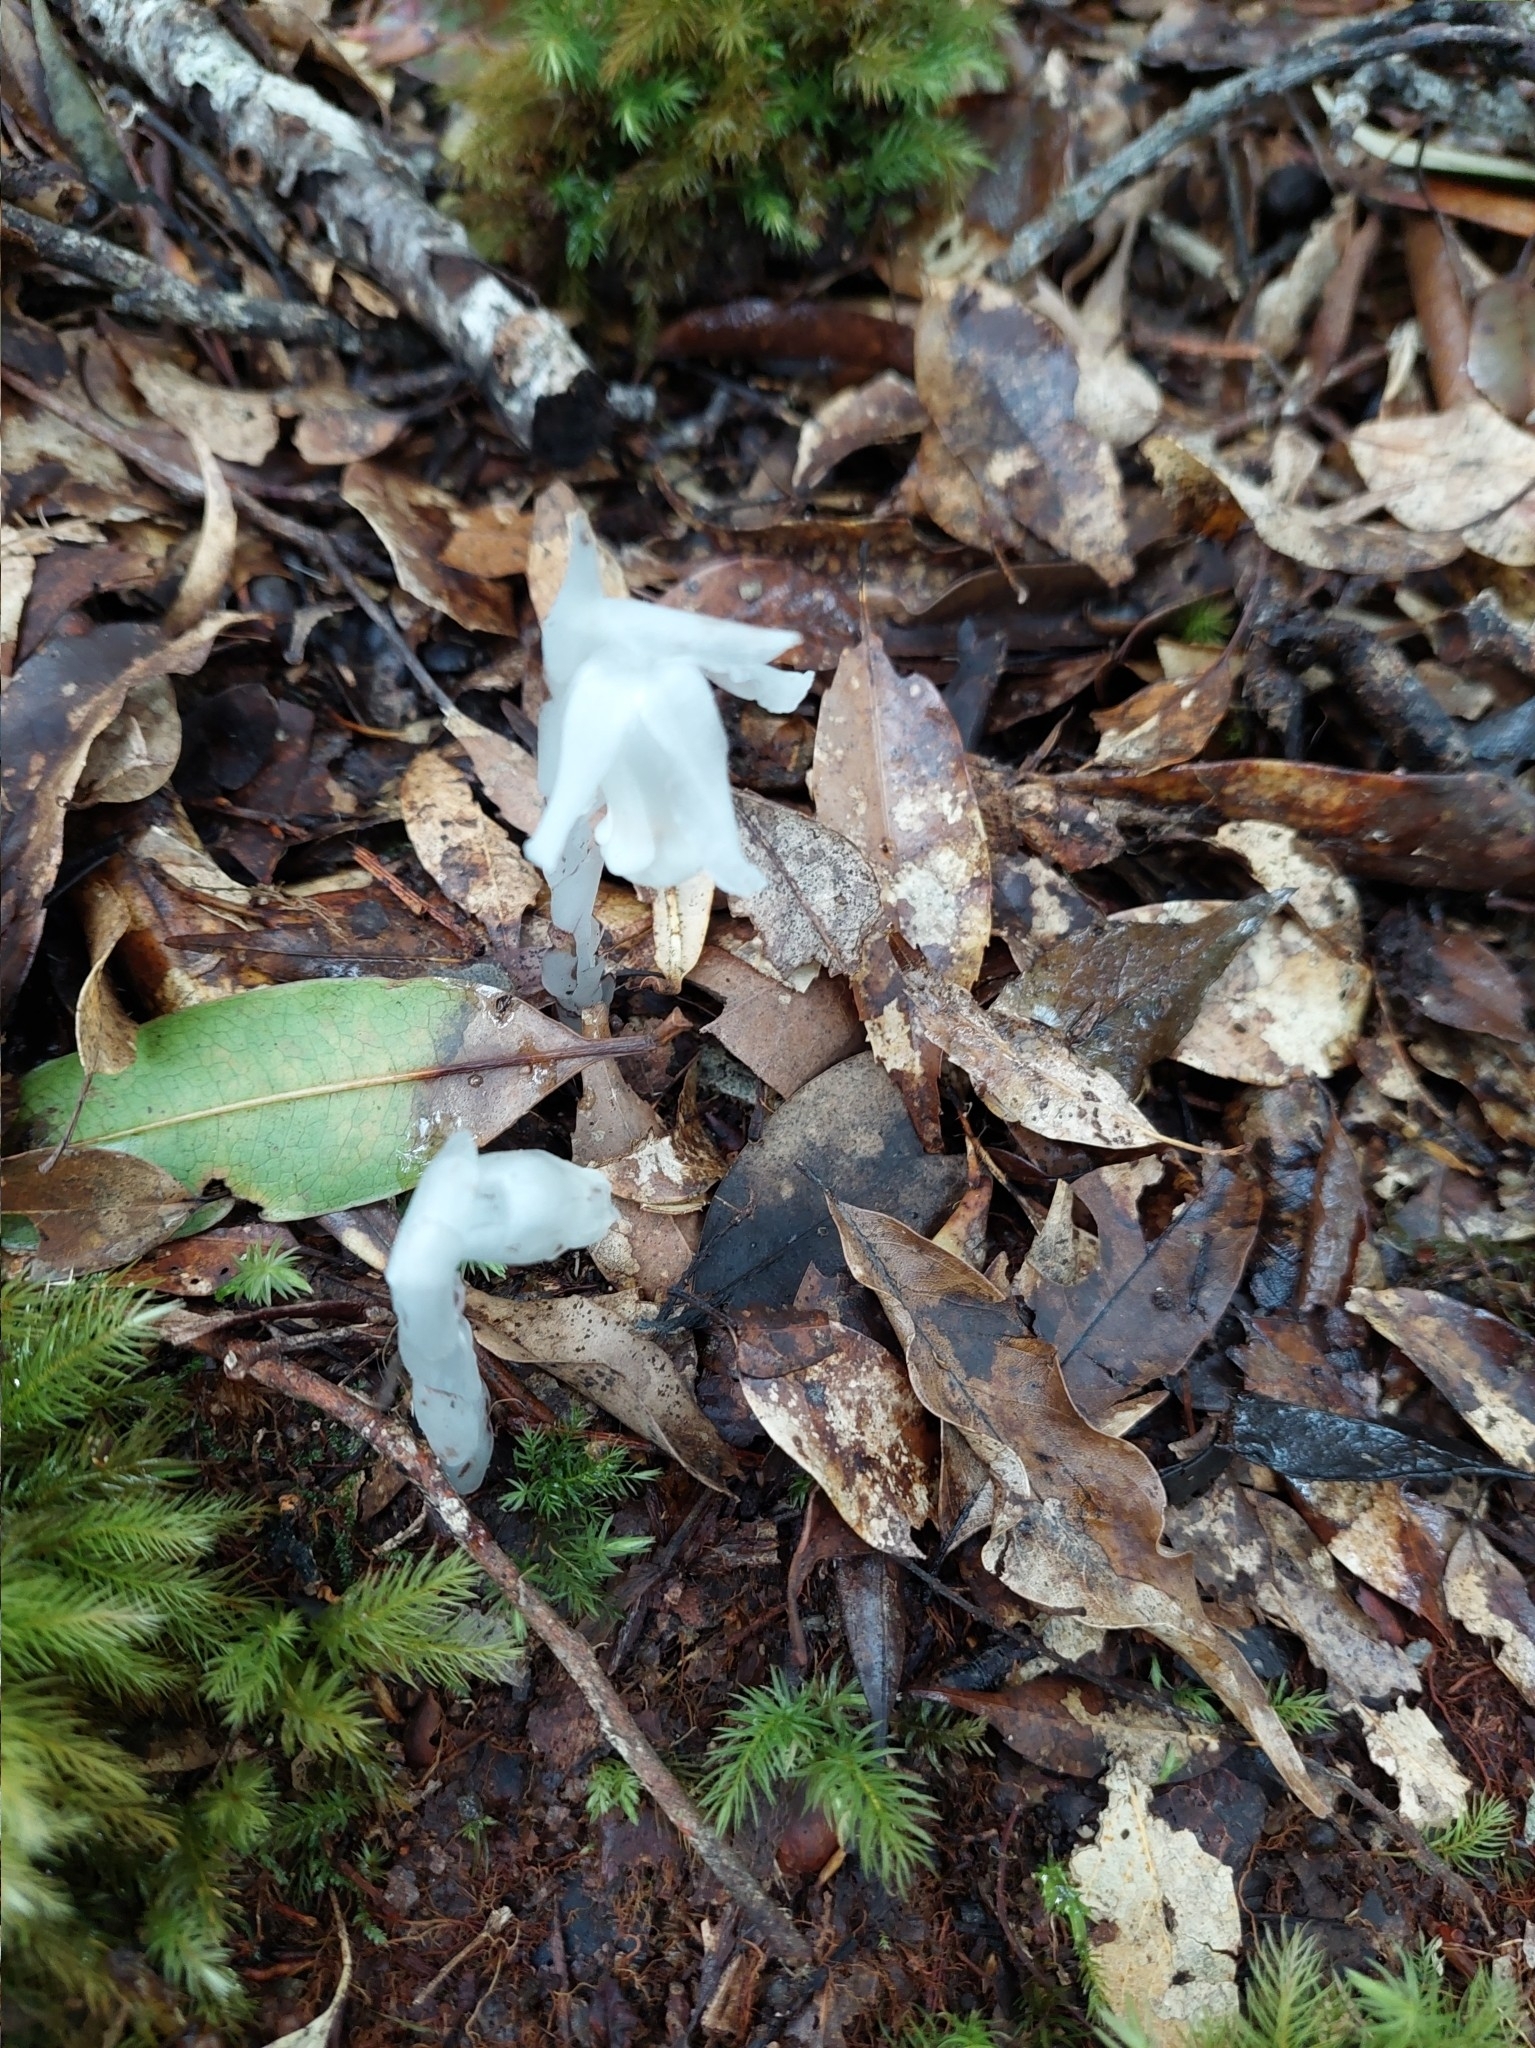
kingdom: Plantae
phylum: Tracheophyta
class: Magnoliopsida
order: Ericales
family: Ericaceae
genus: Monotropastrum
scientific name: Monotropastrum humile
